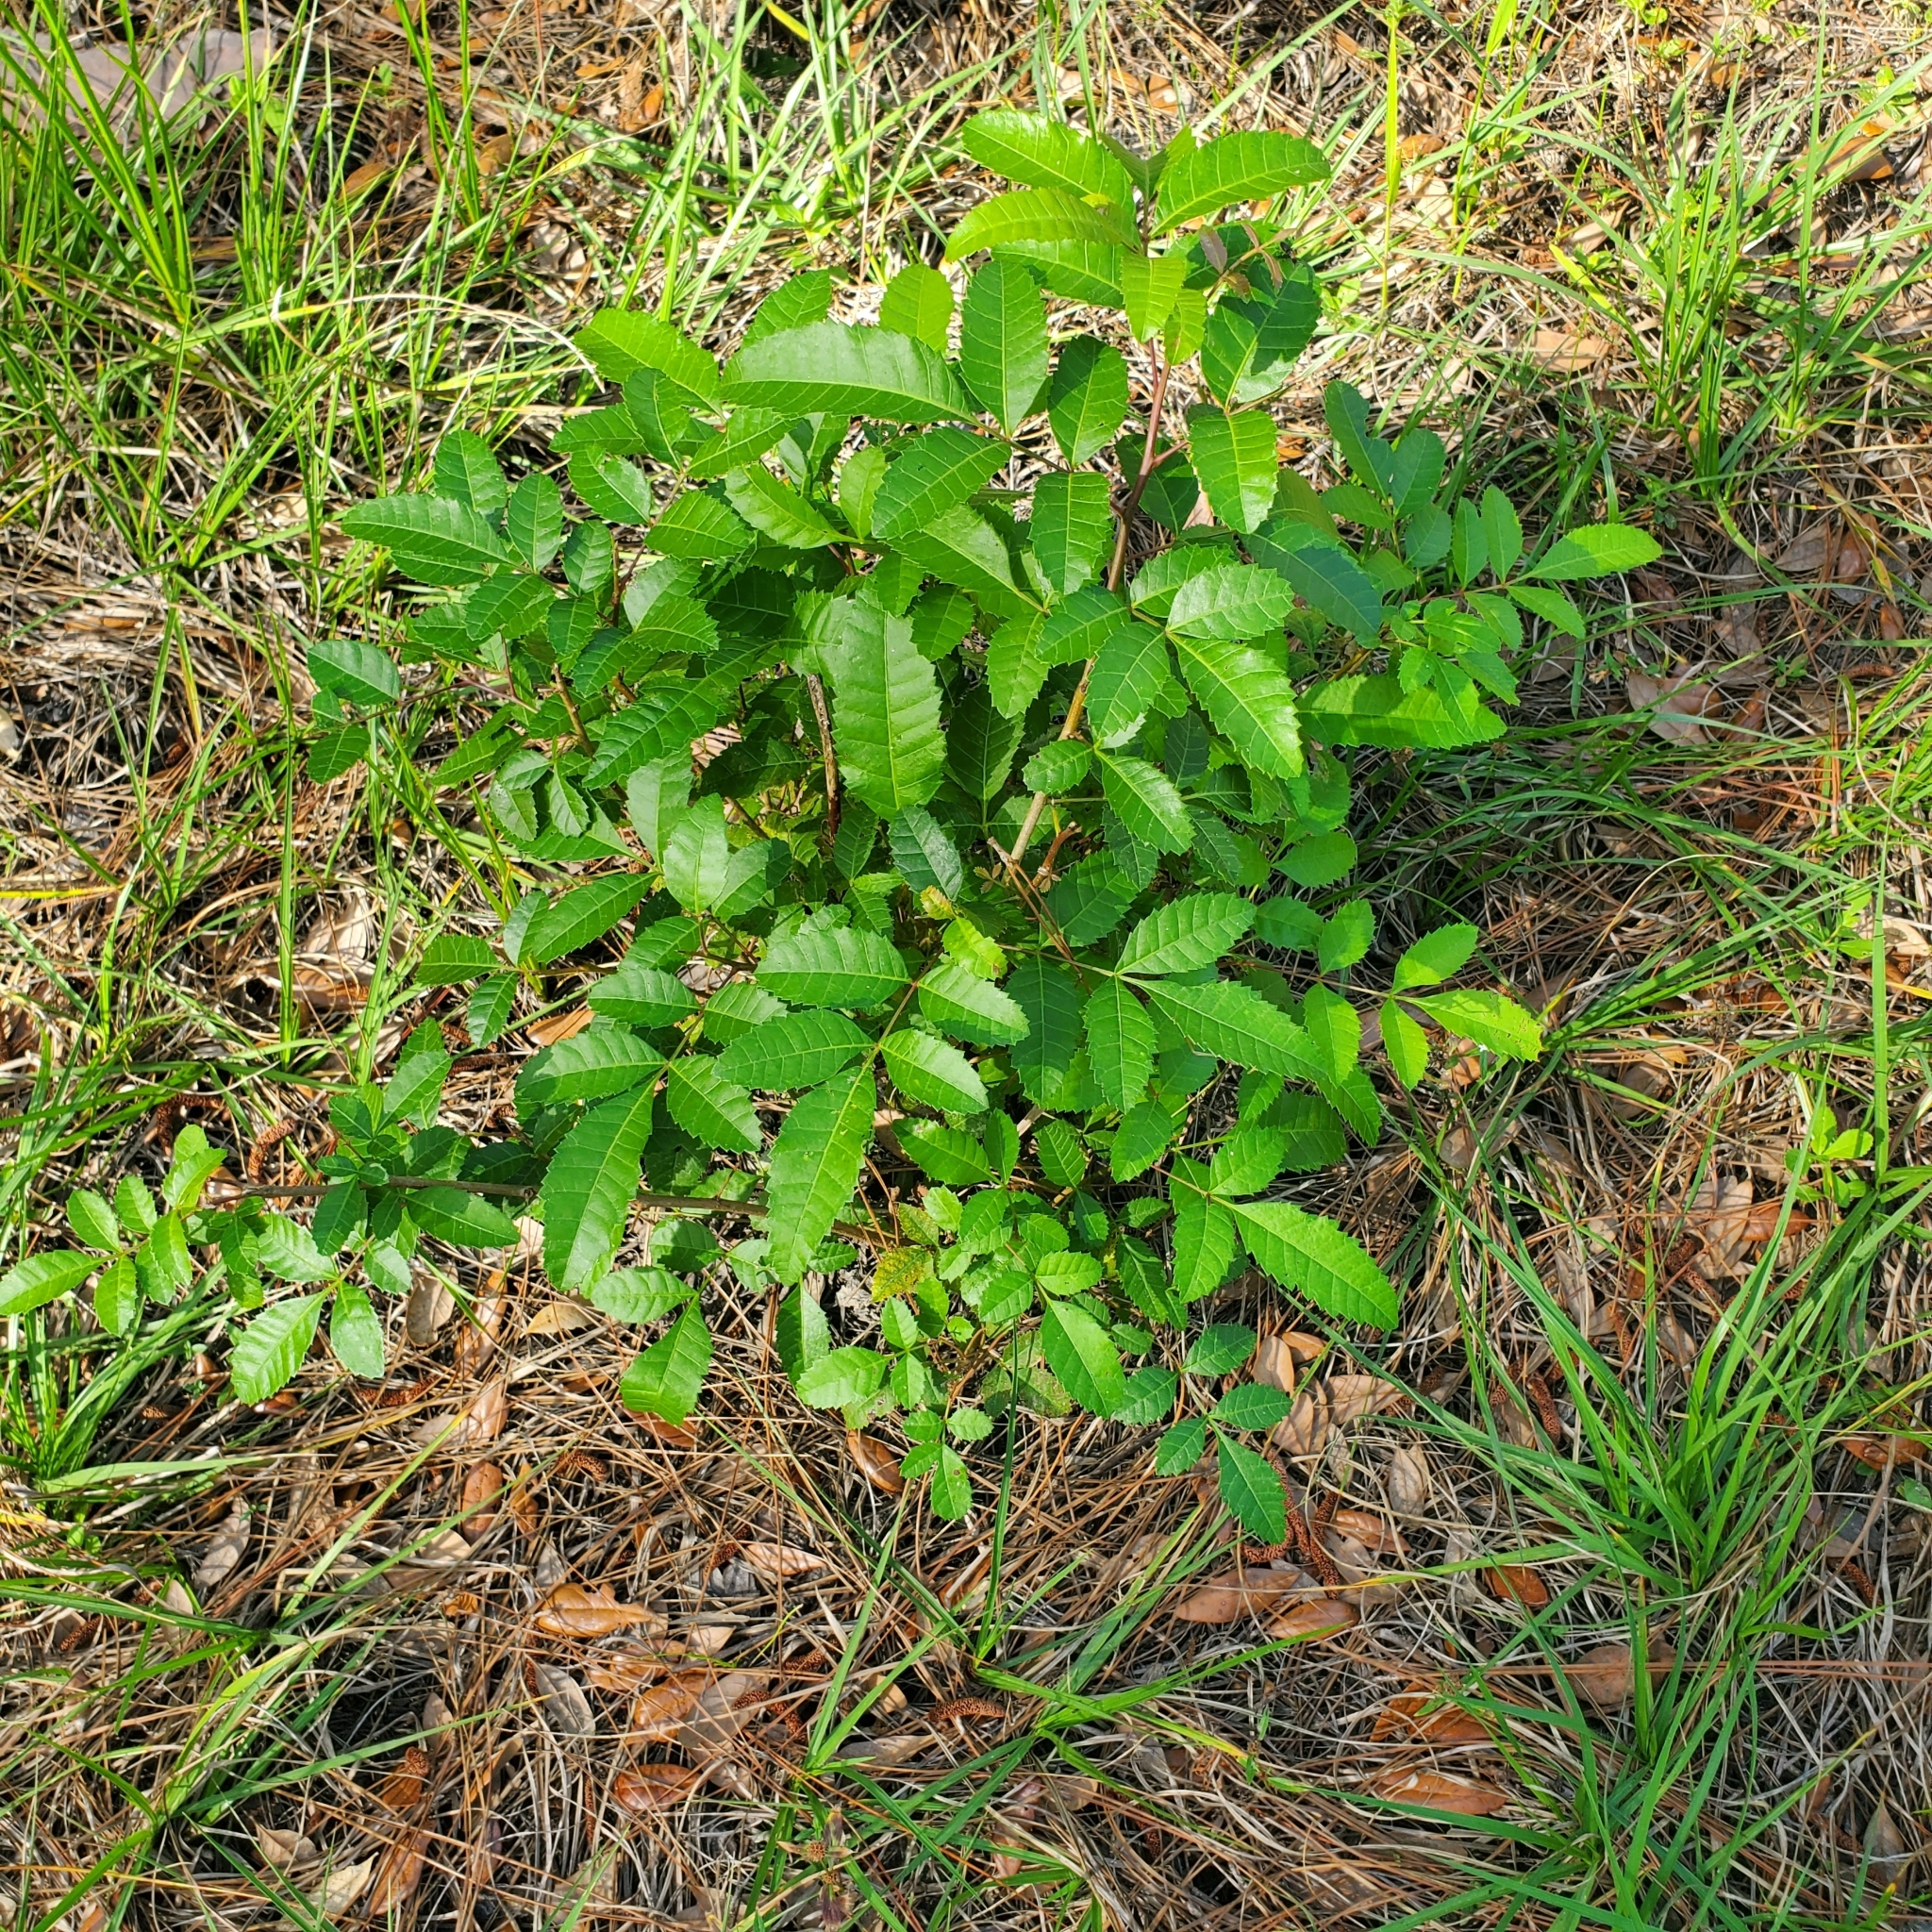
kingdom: Plantae
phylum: Tracheophyta
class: Magnoliopsida
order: Sapindales
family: Anacardiaceae
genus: Schinus
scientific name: Schinus terebinthifolia
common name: Brazilian peppertree
